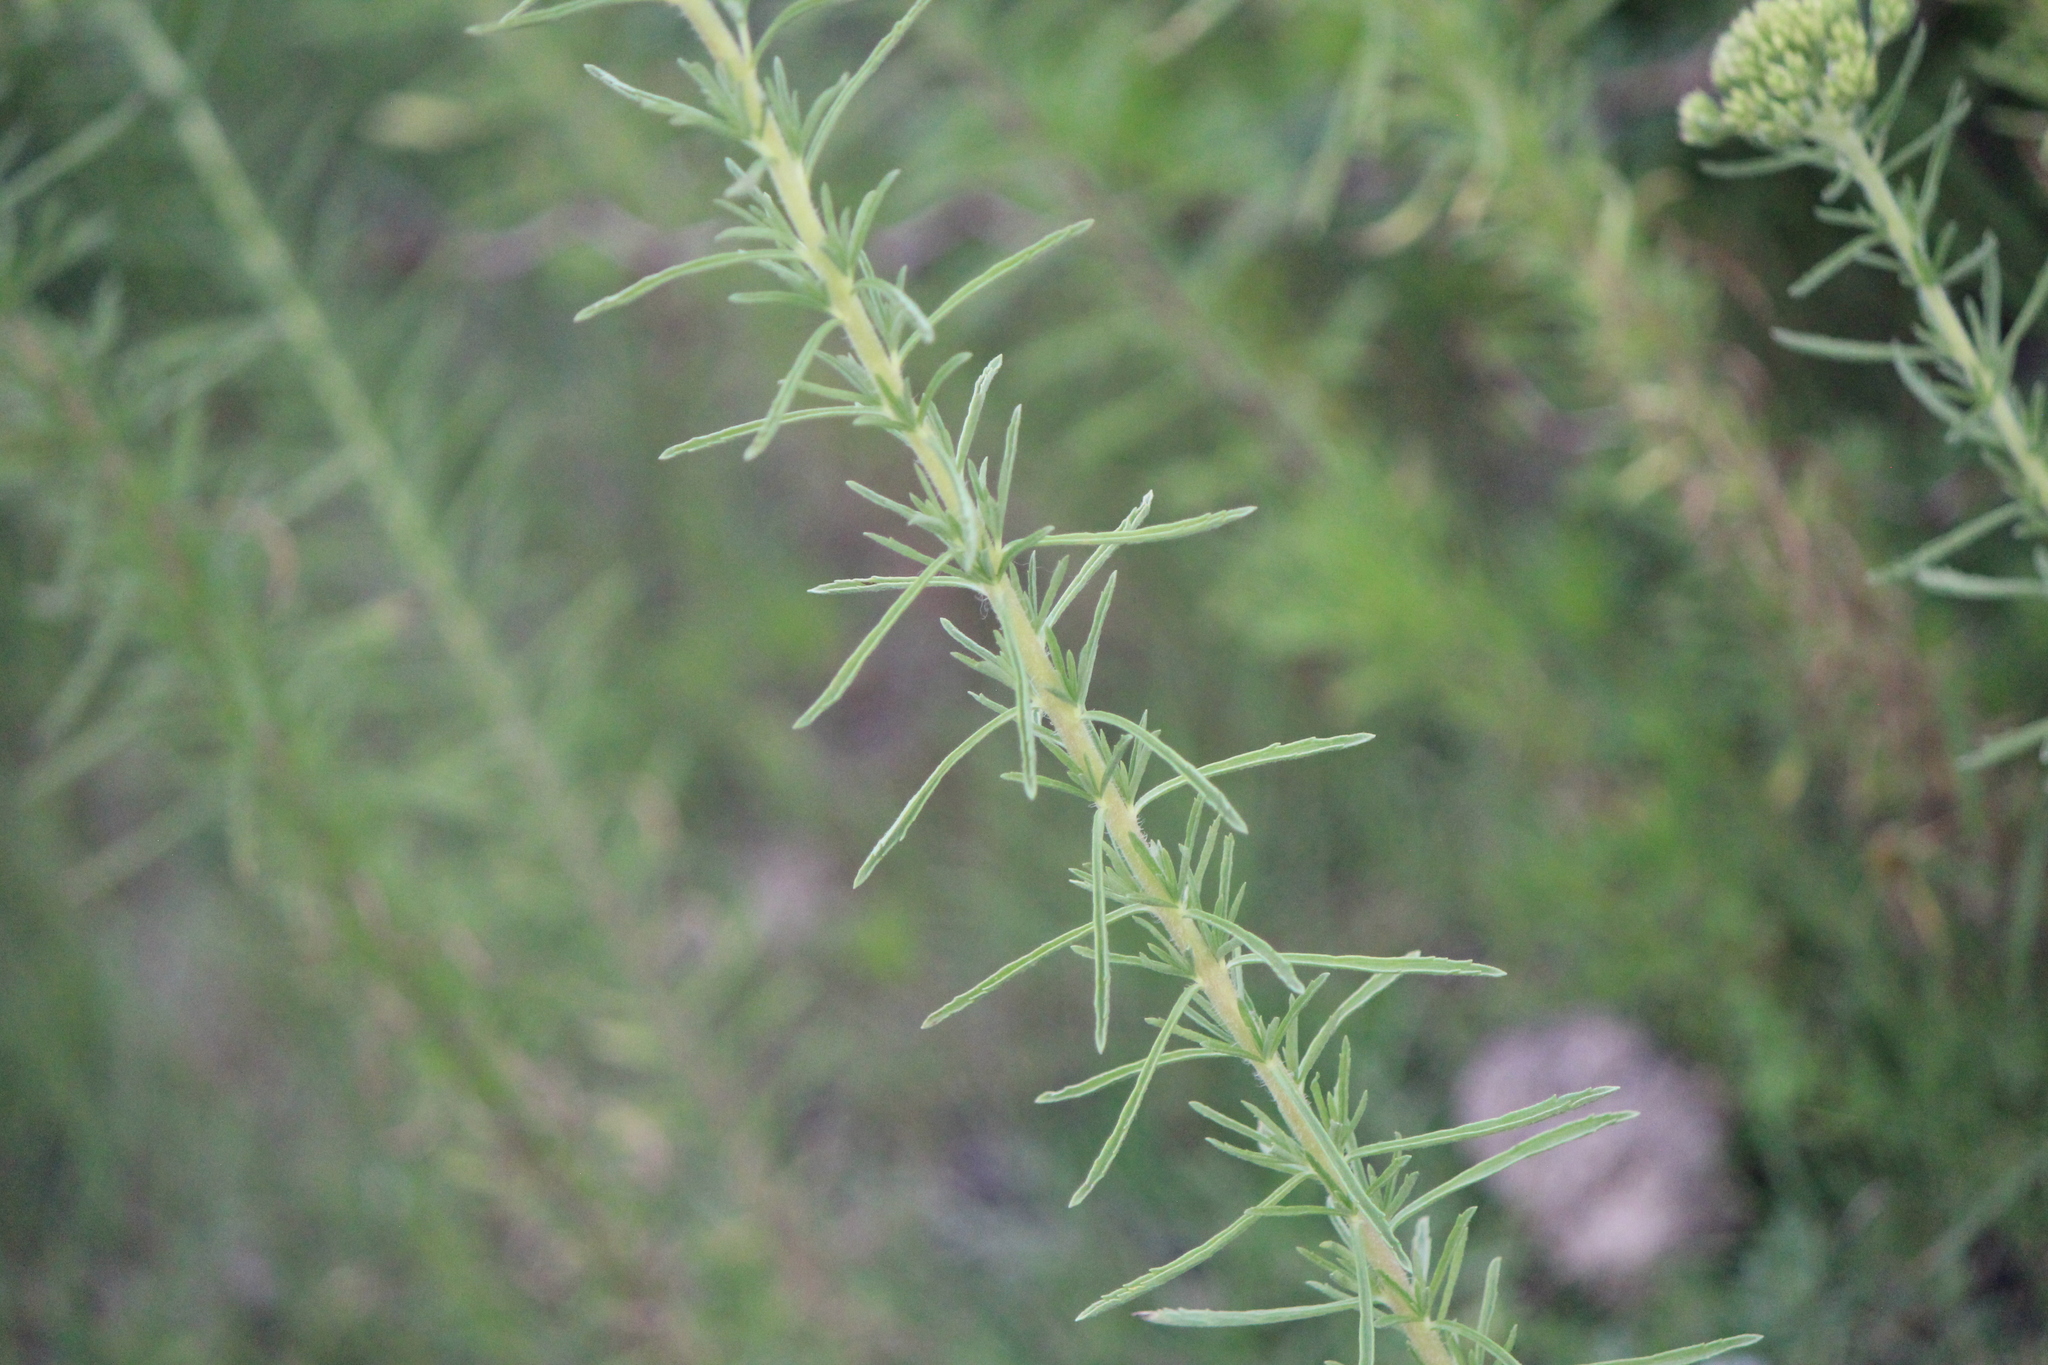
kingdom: Plantae
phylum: Tracheophyta
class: Magnoliopsida
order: Asterales
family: Asteraceae
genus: Stevia
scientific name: Stevia serrata
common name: Sawtooth candyleaf
